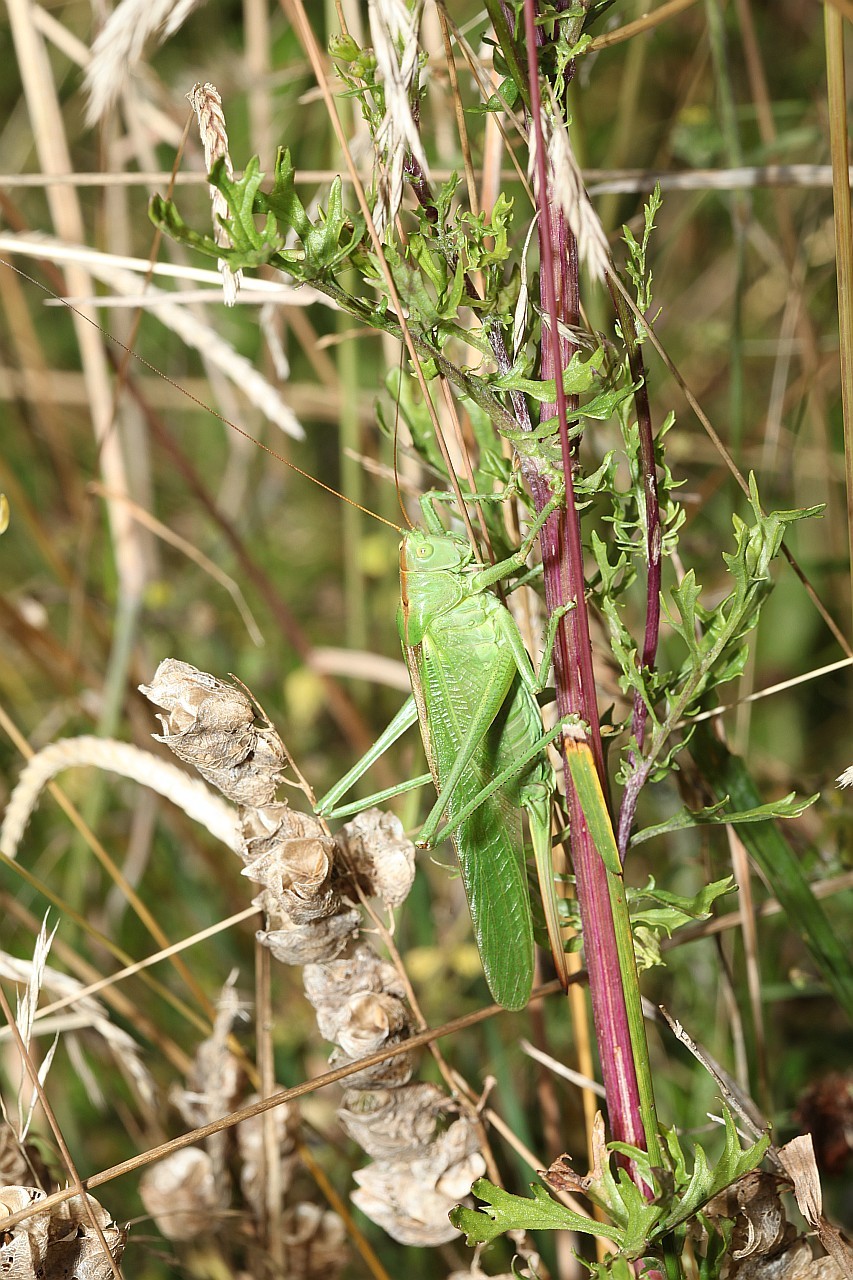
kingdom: Animalia
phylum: Arthropoda
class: Insecta
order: Orthoptera
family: Tettigoniidae
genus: Tettigonia
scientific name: Tettigonia viridissima
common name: Great green bush-cricket
